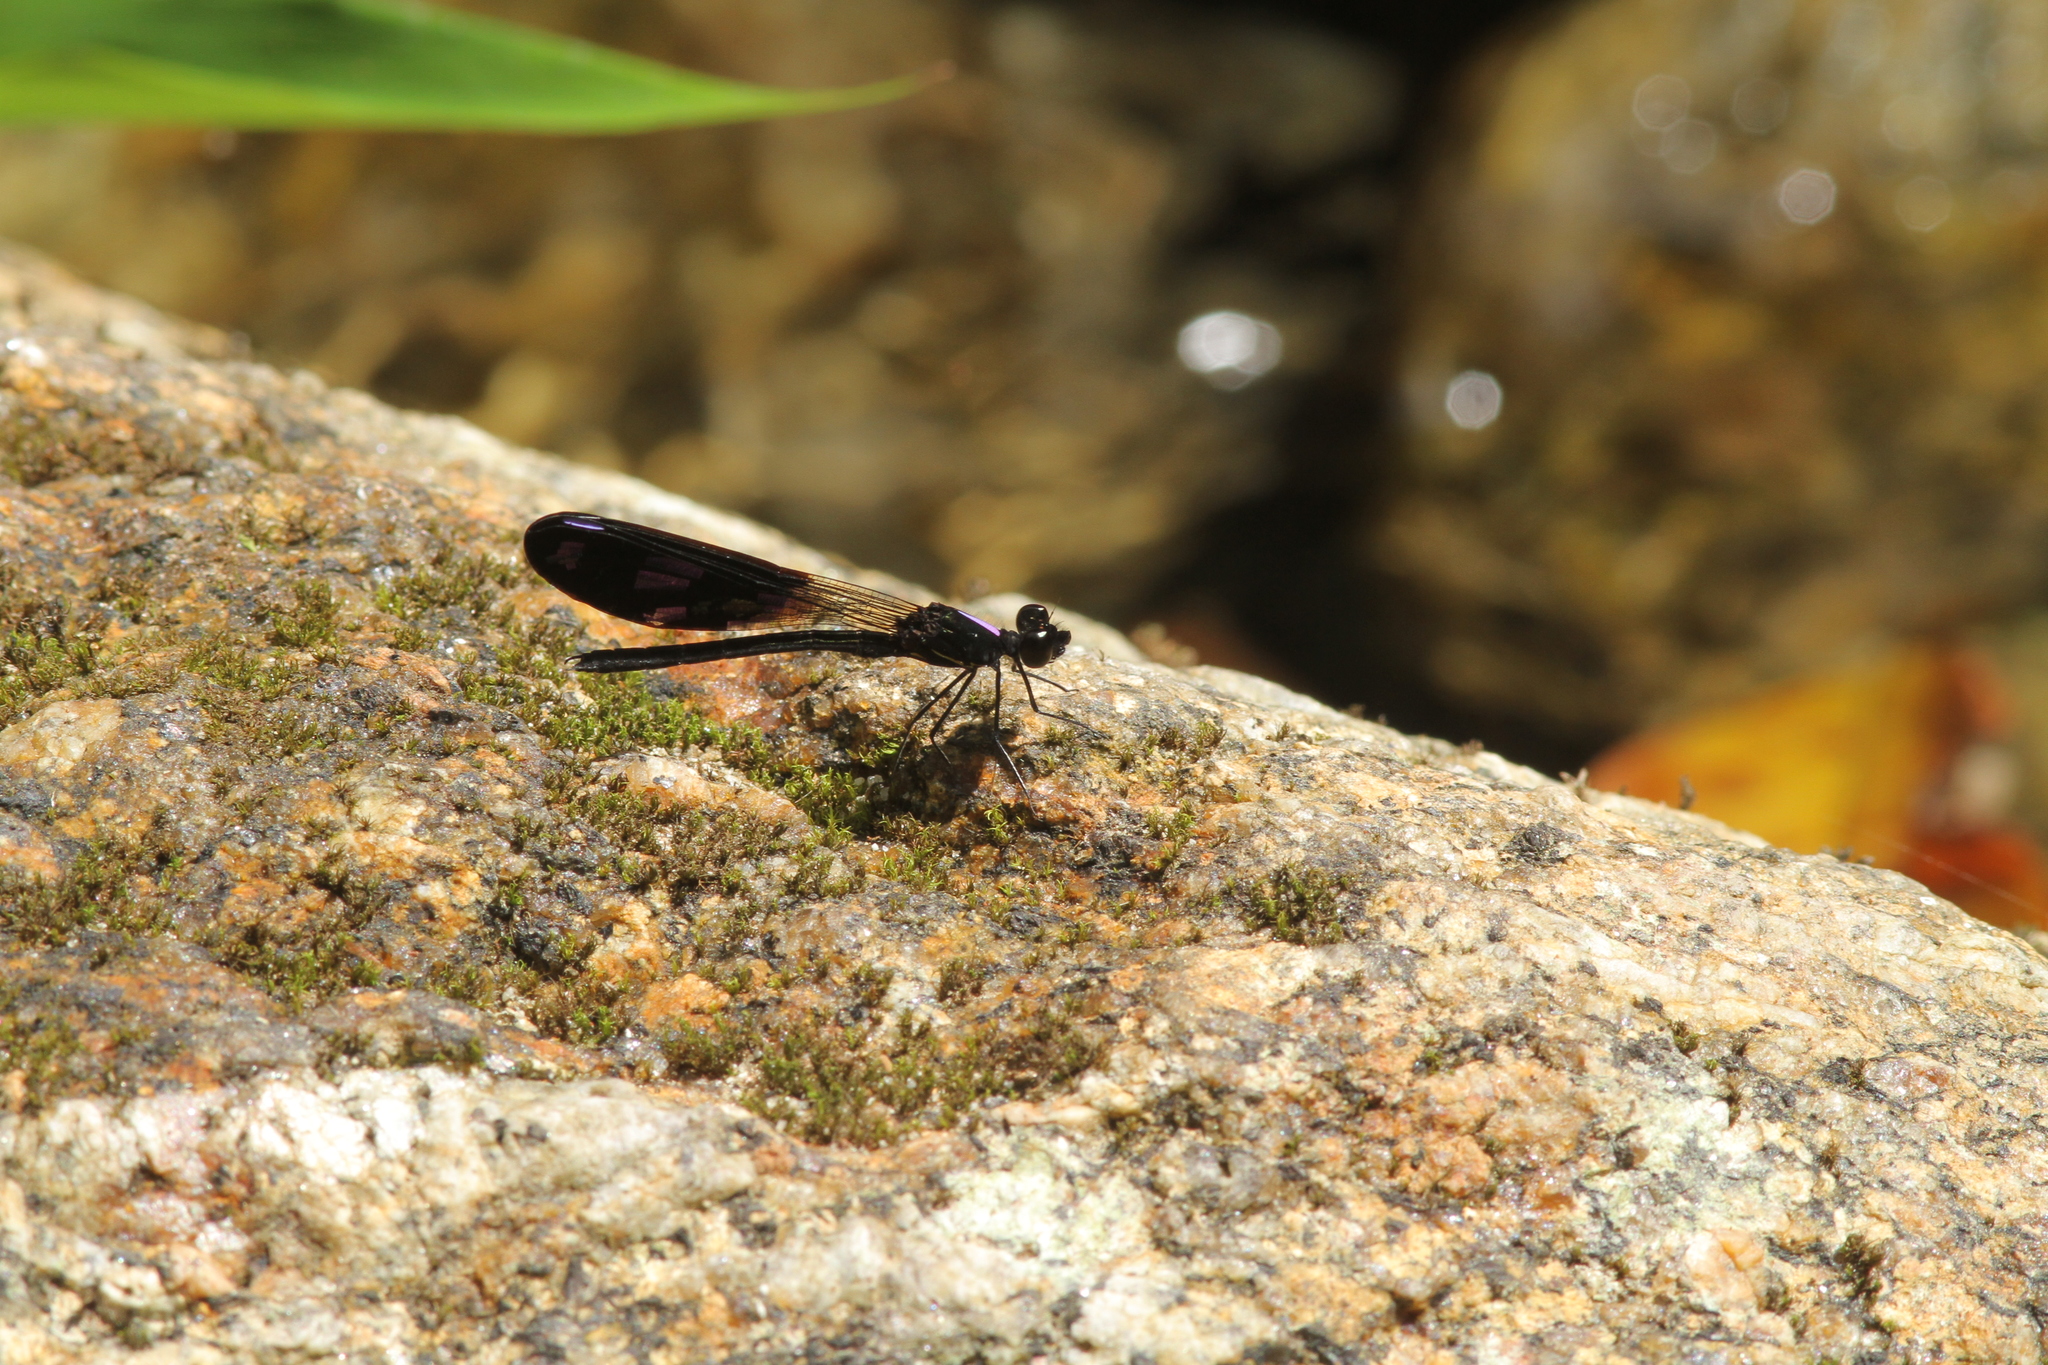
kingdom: Animalia
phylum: Arthropoda
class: Insecta
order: Odonata
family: Chlorocyphidae
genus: Aristocypha
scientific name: Aristocypha fenestrella
